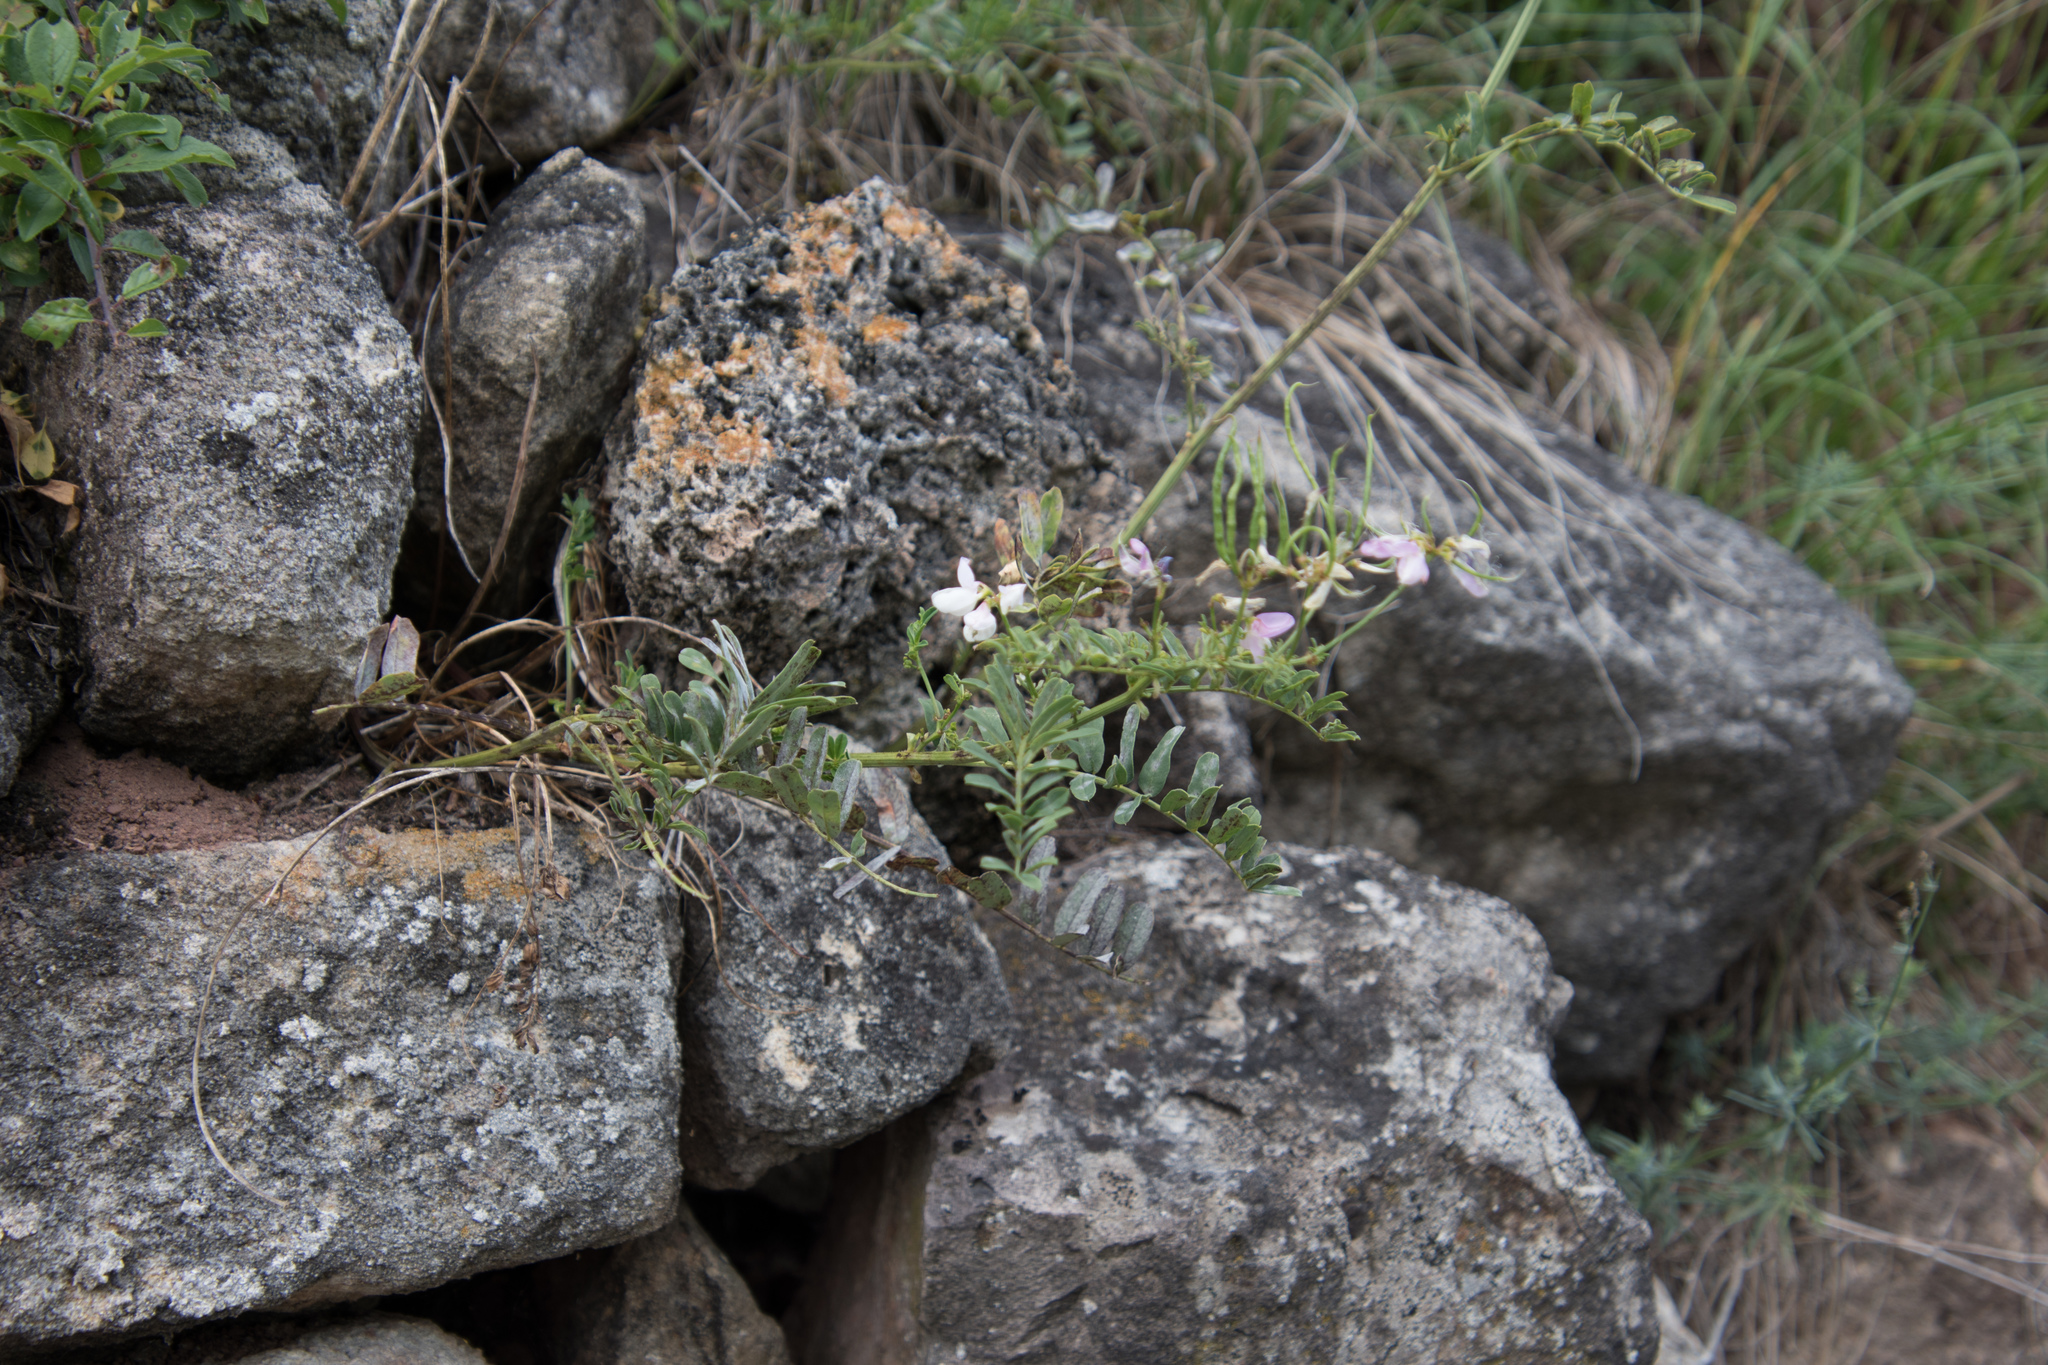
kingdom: Plantae
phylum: Tracheophyta
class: Magnoliopsida
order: Fabales
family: Fabaceae
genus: Coronilla
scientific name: Coronilla varia
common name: Crownvetch
